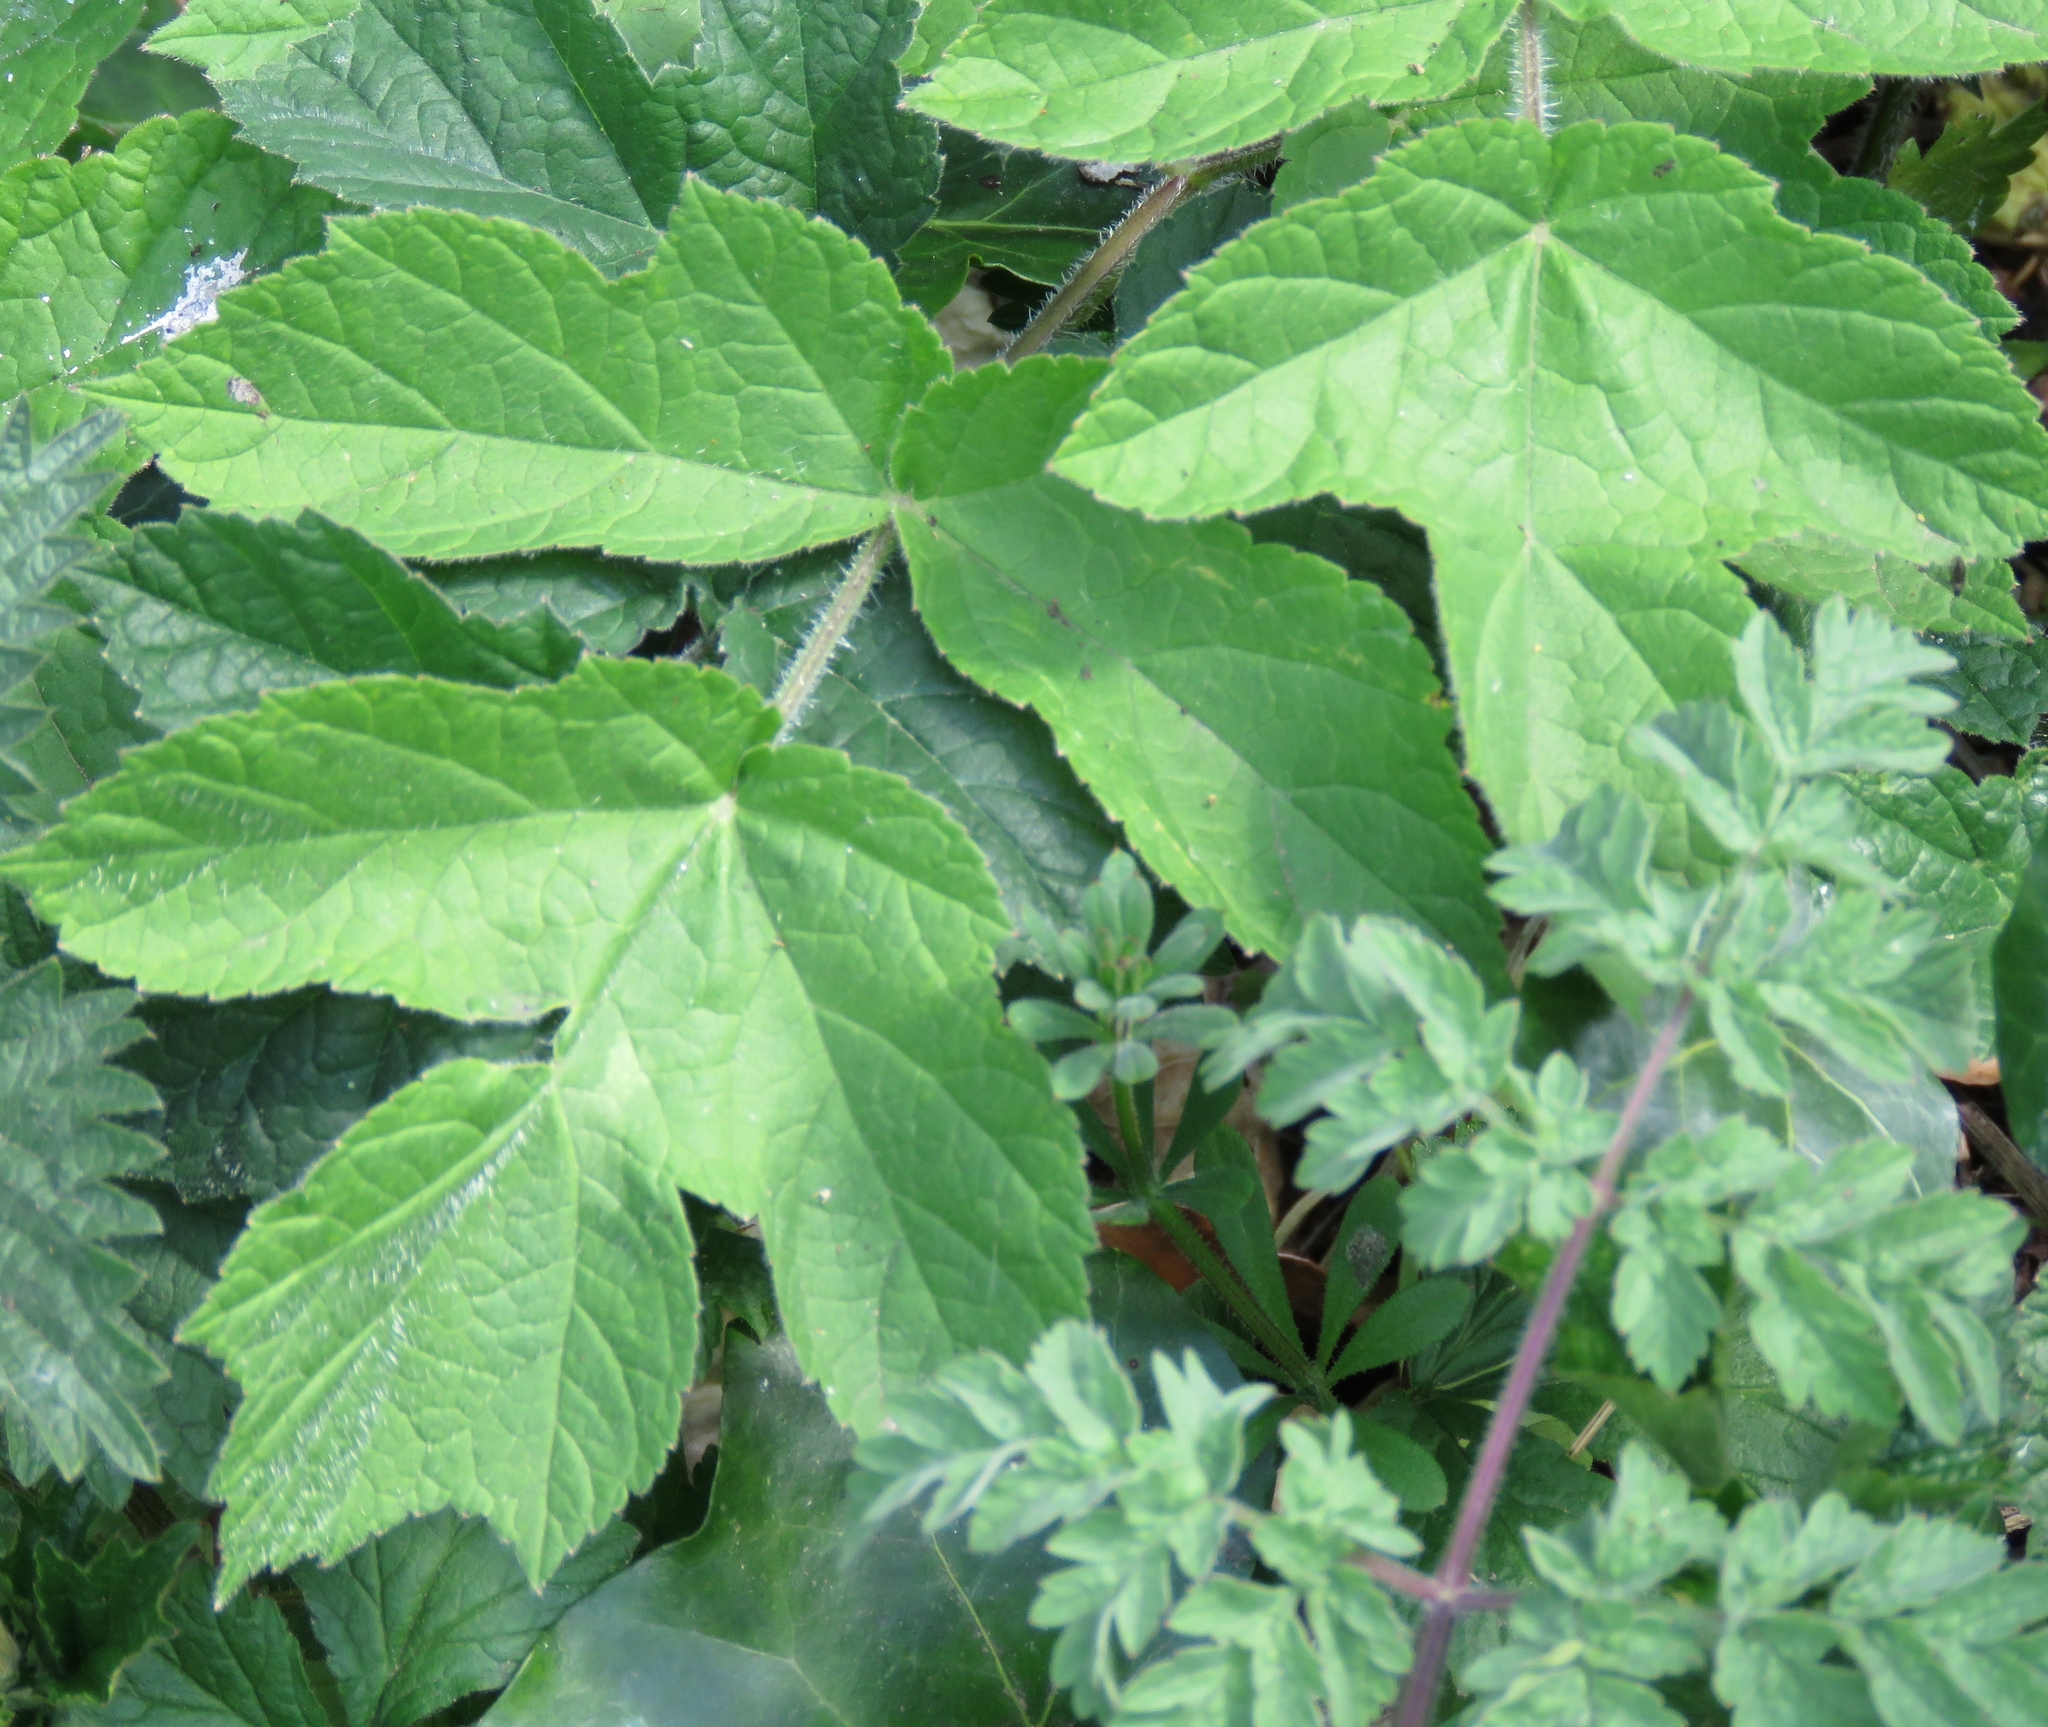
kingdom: Plantae
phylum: Tracheophyta
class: Magnoliopsida
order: Apiales
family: Apiaceae
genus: Heracleum
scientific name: Heracleum sphondylium
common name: Hogweed
